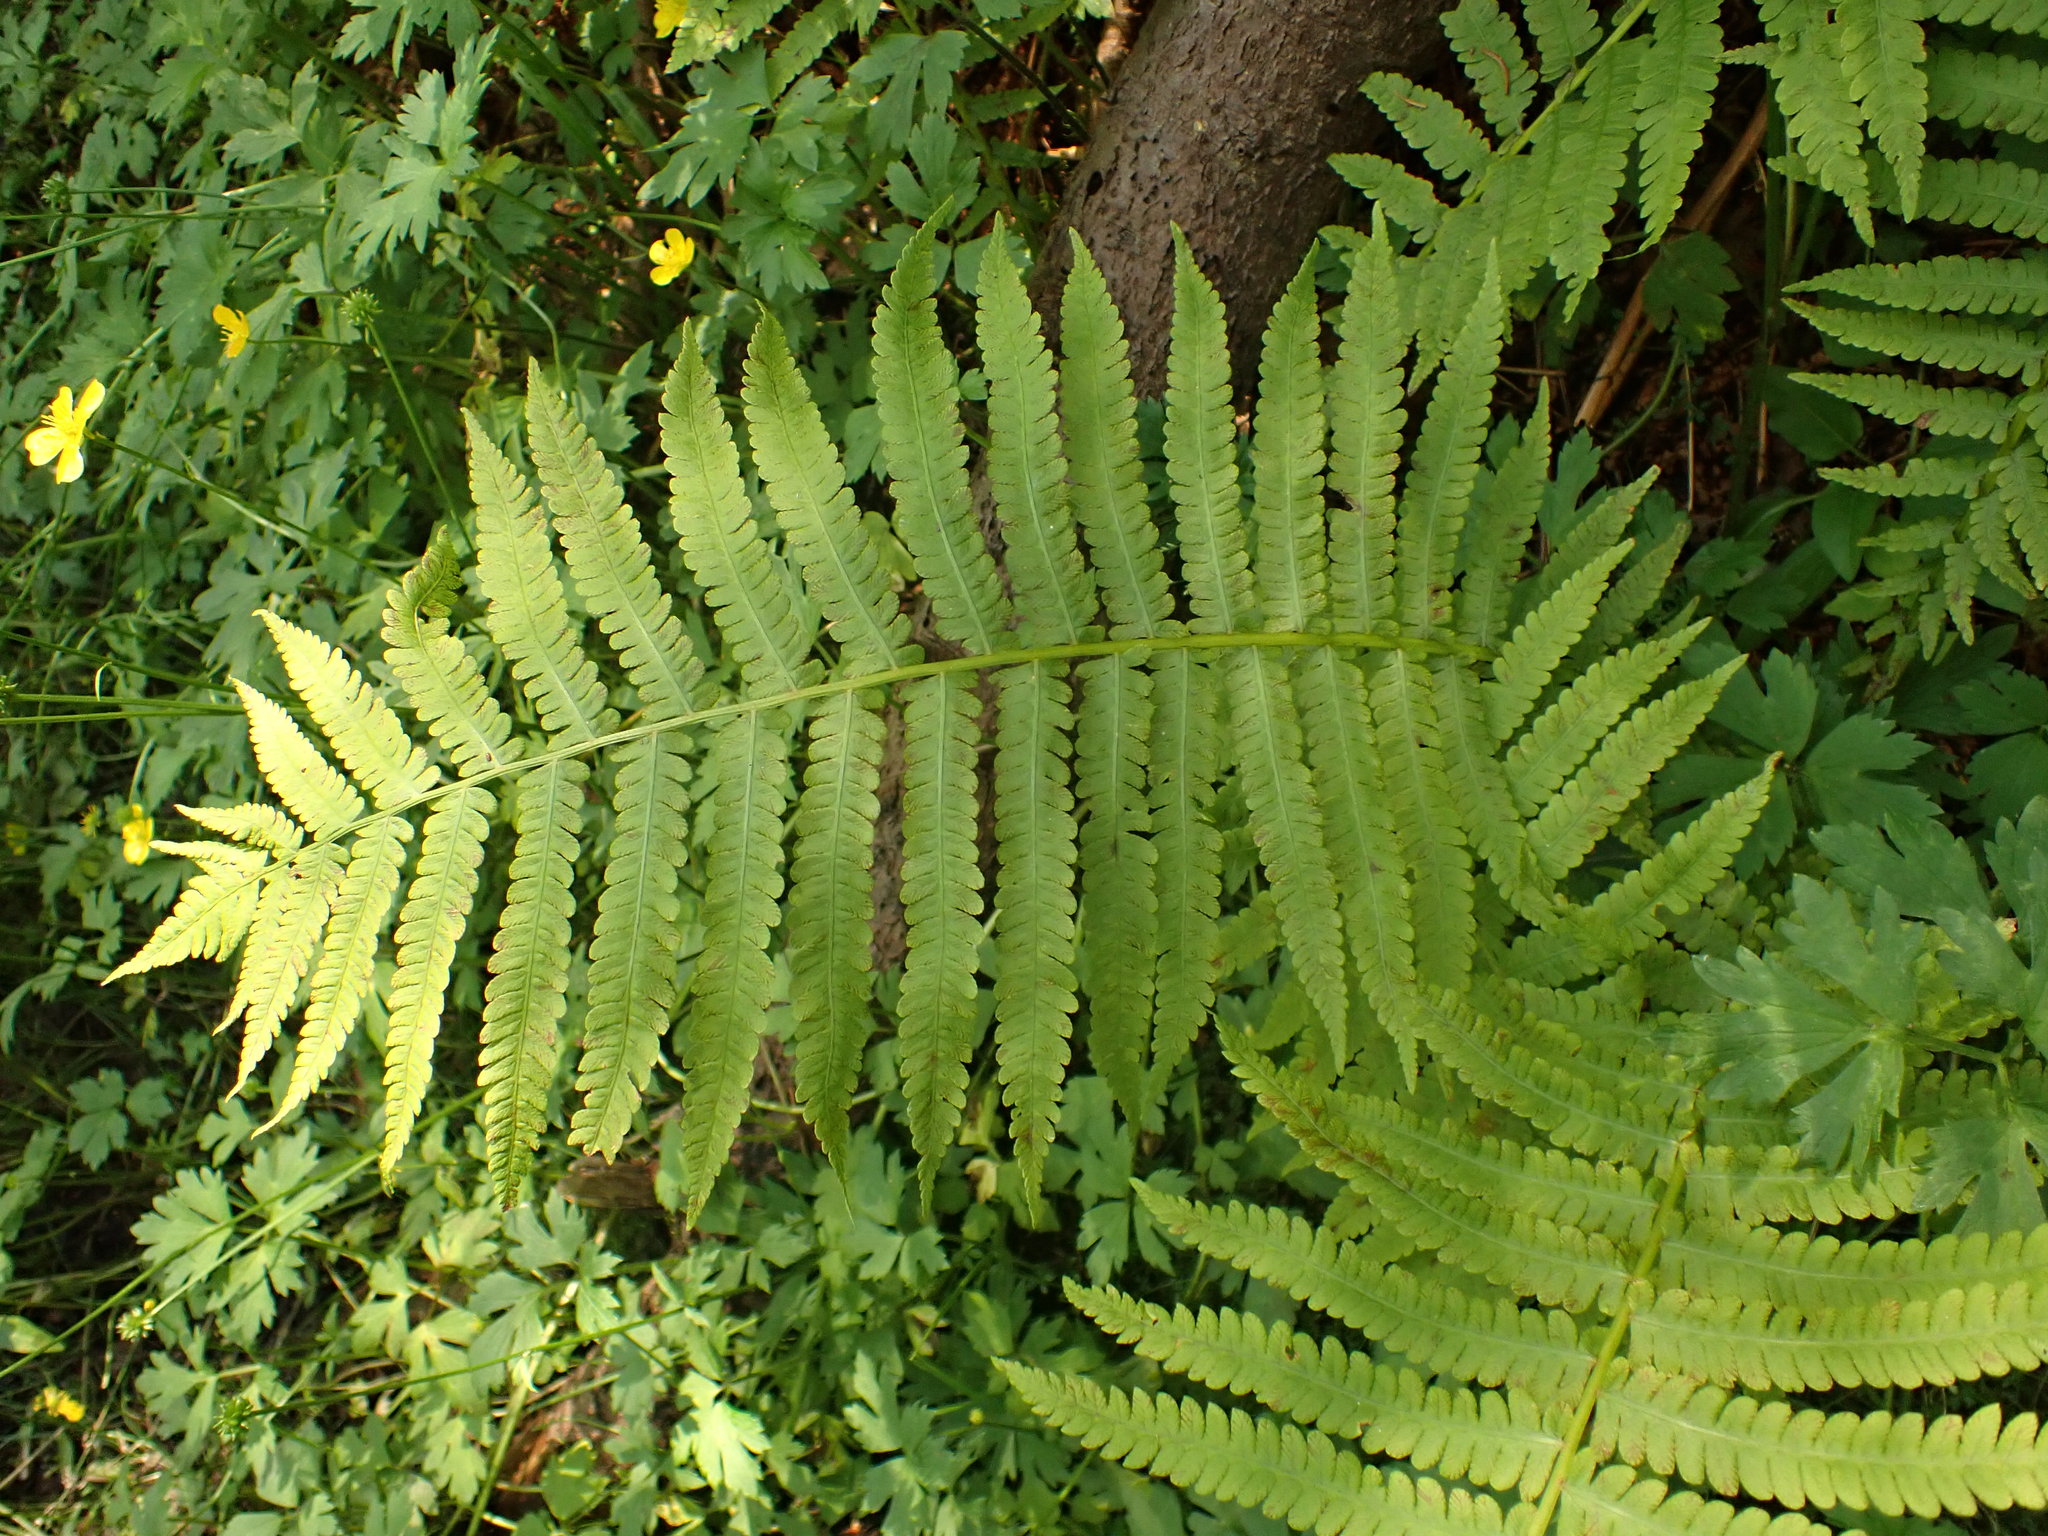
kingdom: Plantae
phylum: Tracheophyta
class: Polypodiopsida
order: Polypodiales
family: Onocleaceae
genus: Matteuccia
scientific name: Matteuccia struthiopteris
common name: Ostrich fern
